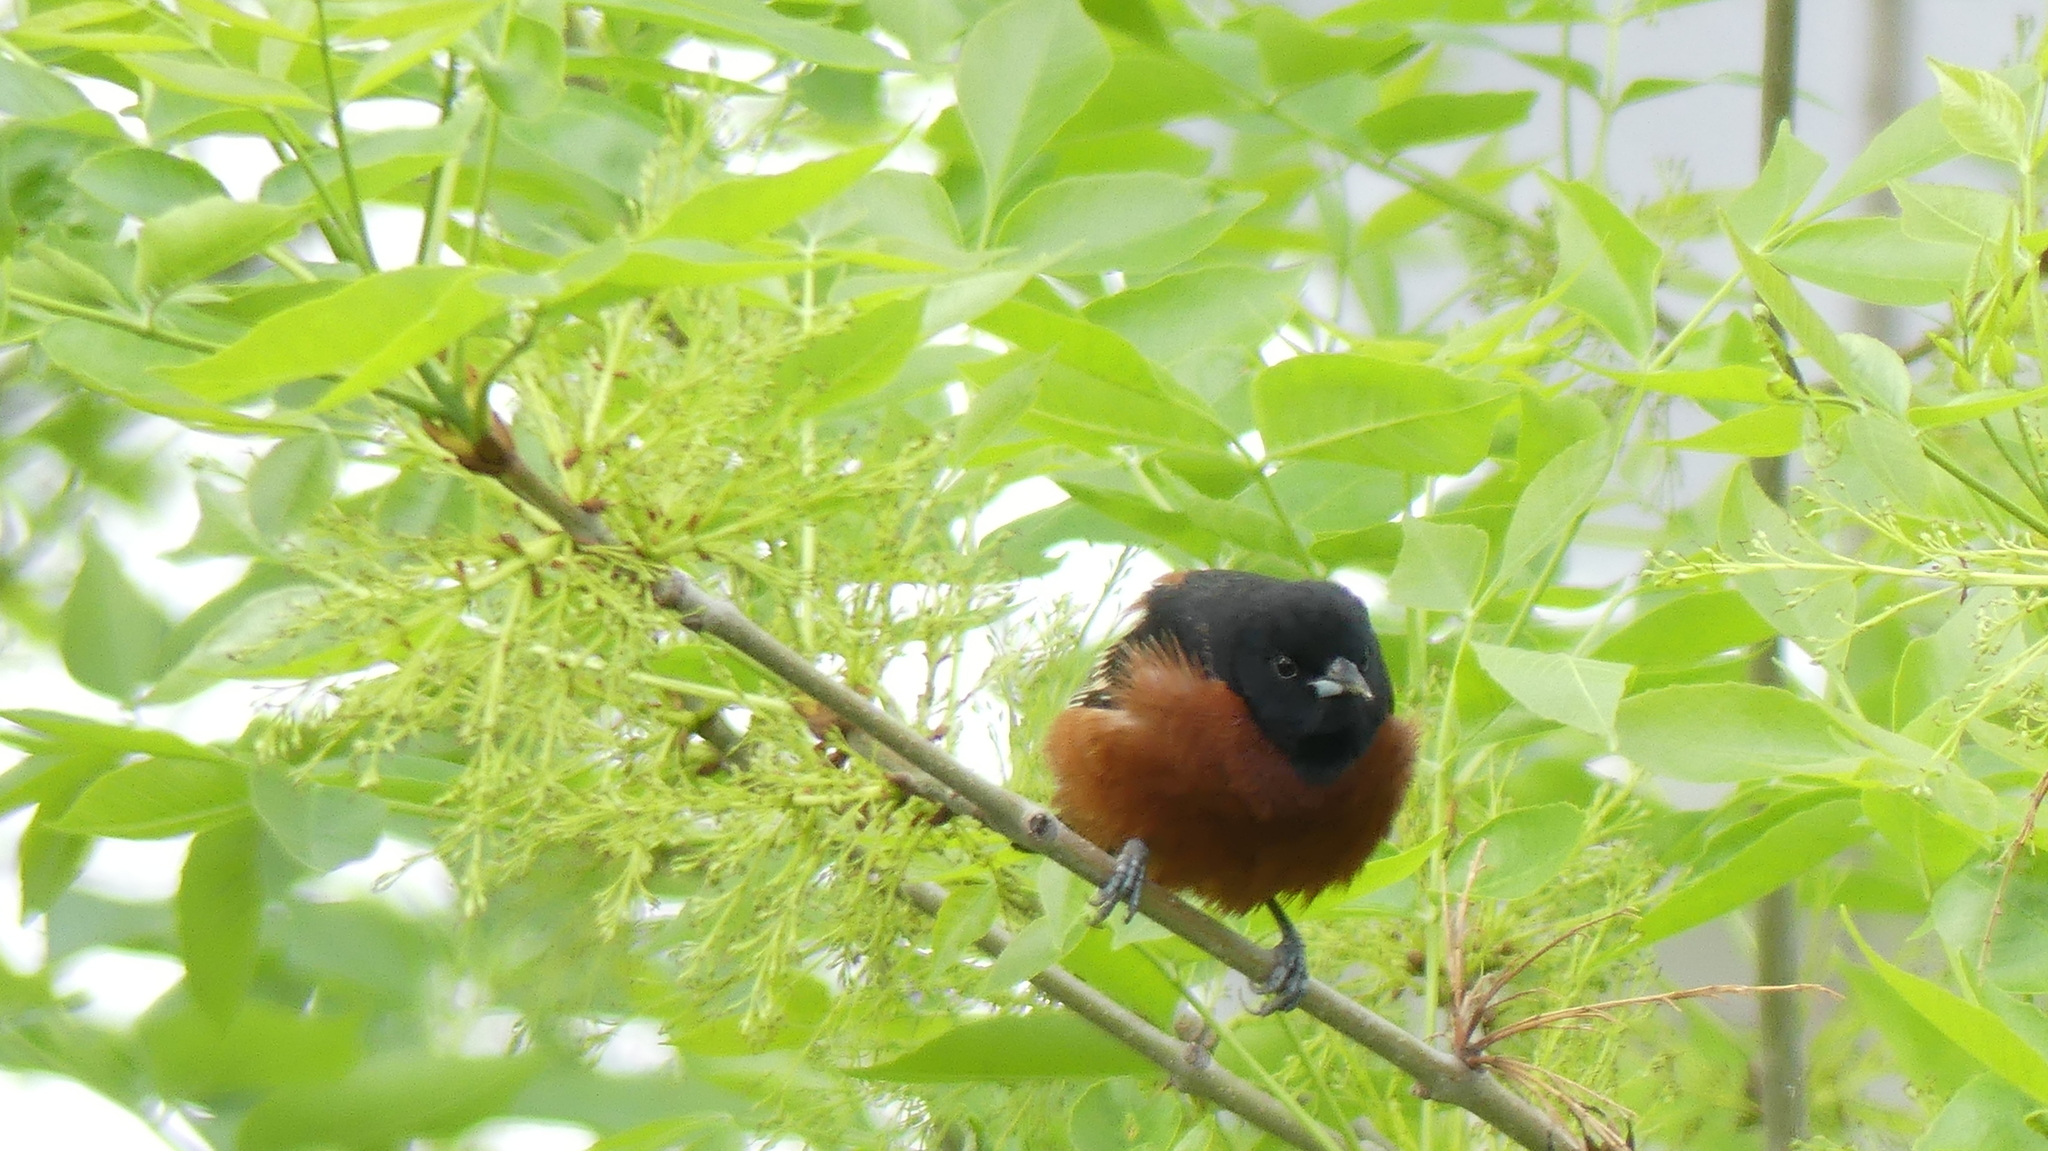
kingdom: Animalia
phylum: Chordata
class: Aves
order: Passeriformes
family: Icteridae
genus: Icterus
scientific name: Icterus spurius
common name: Orchard oriole
